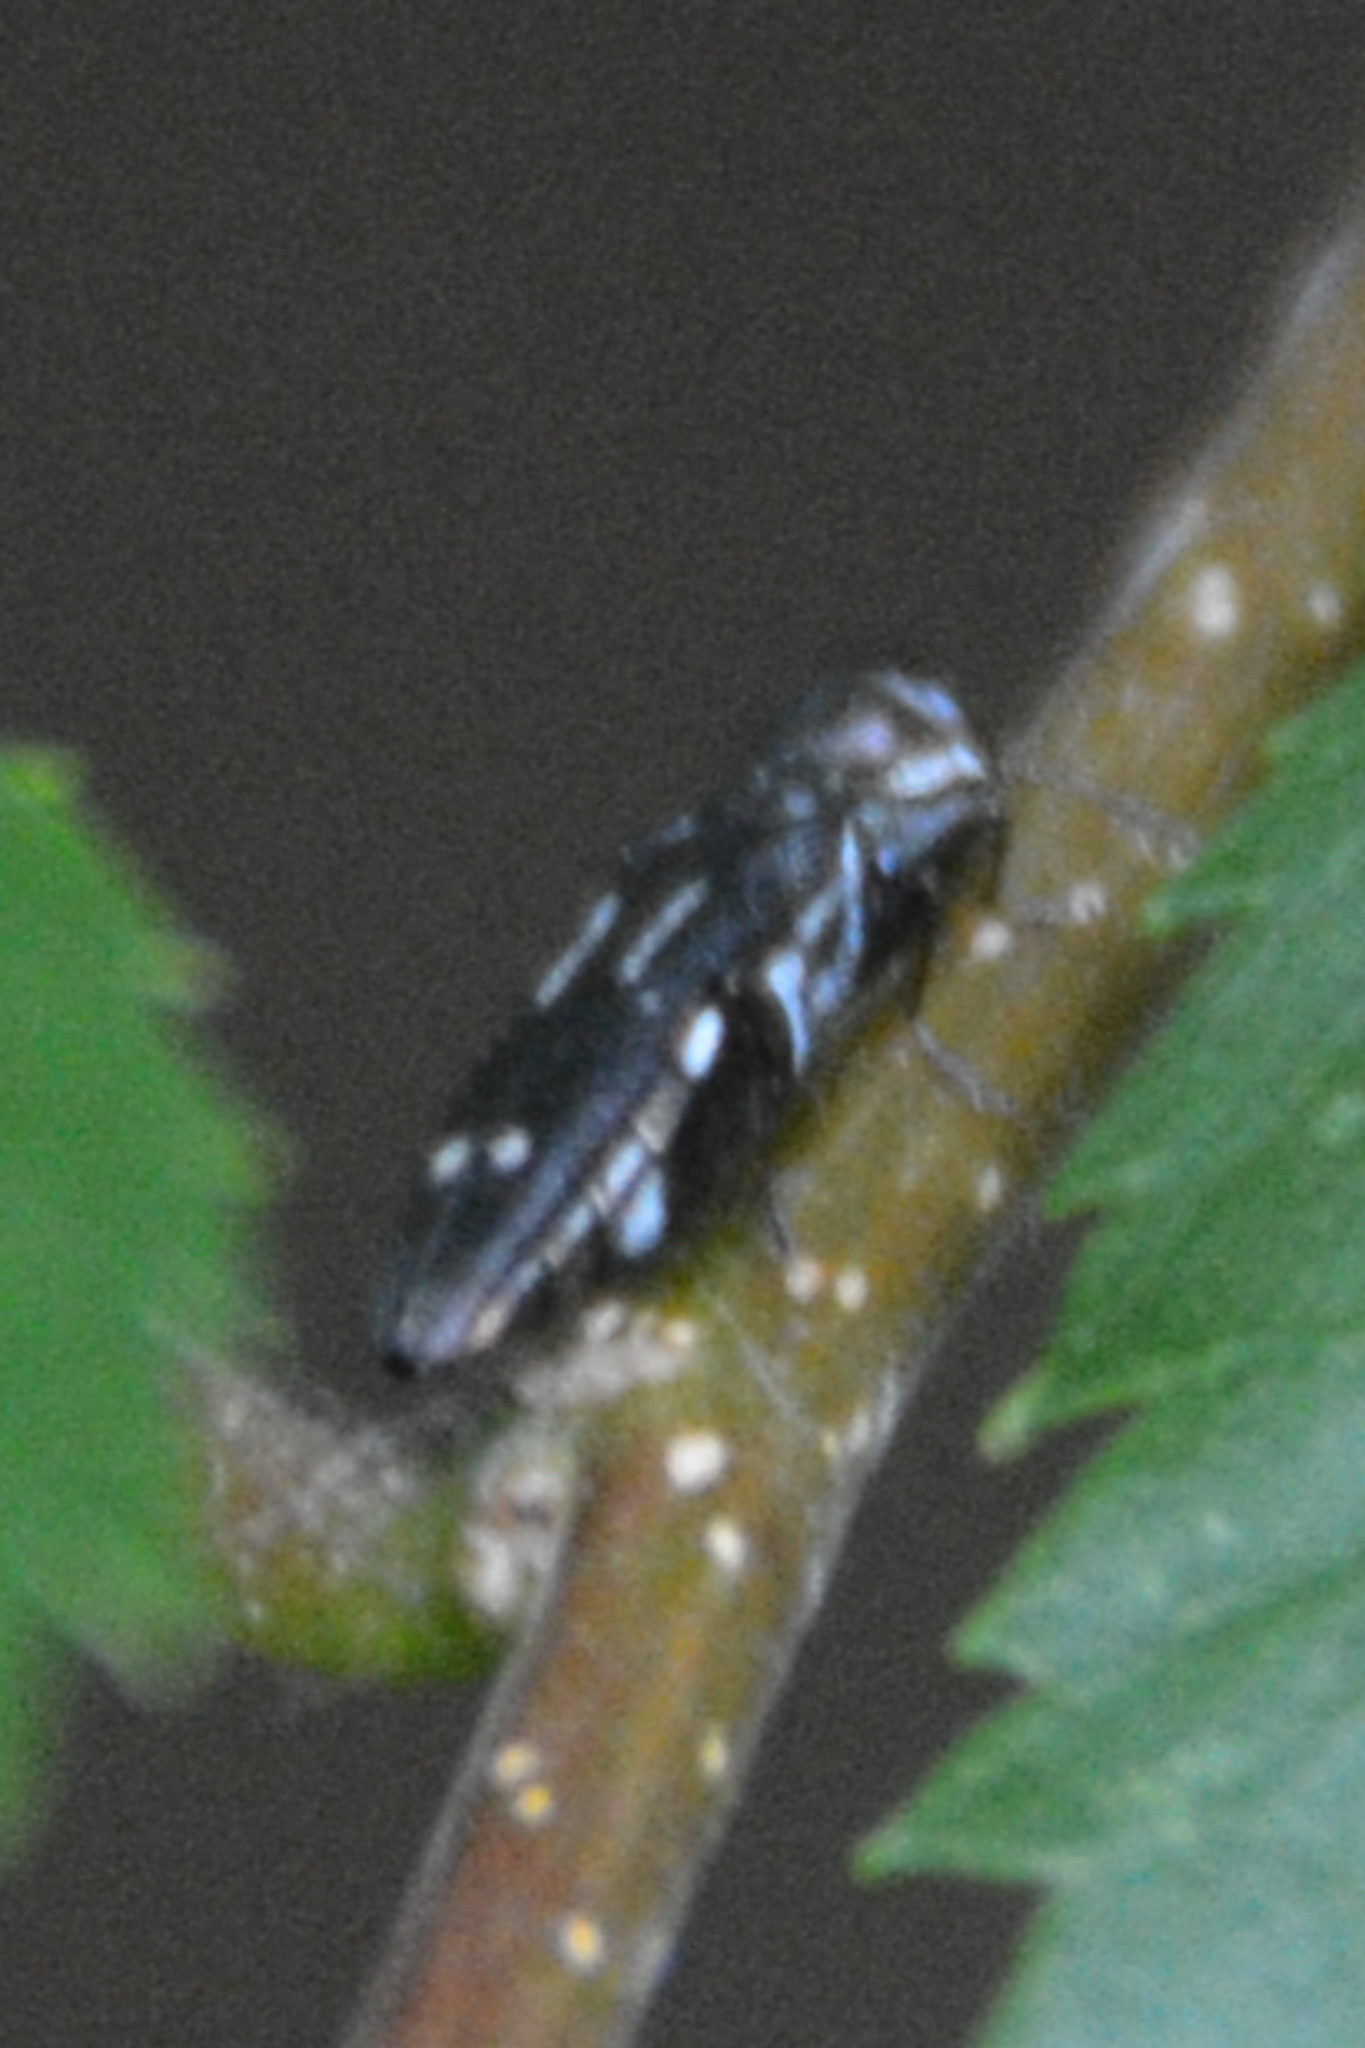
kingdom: Animalia
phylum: Arthropoda
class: Insecta
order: Coleoptera
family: Buprestidae
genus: Agrilus
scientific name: Agrilus obsoletoguttatus
